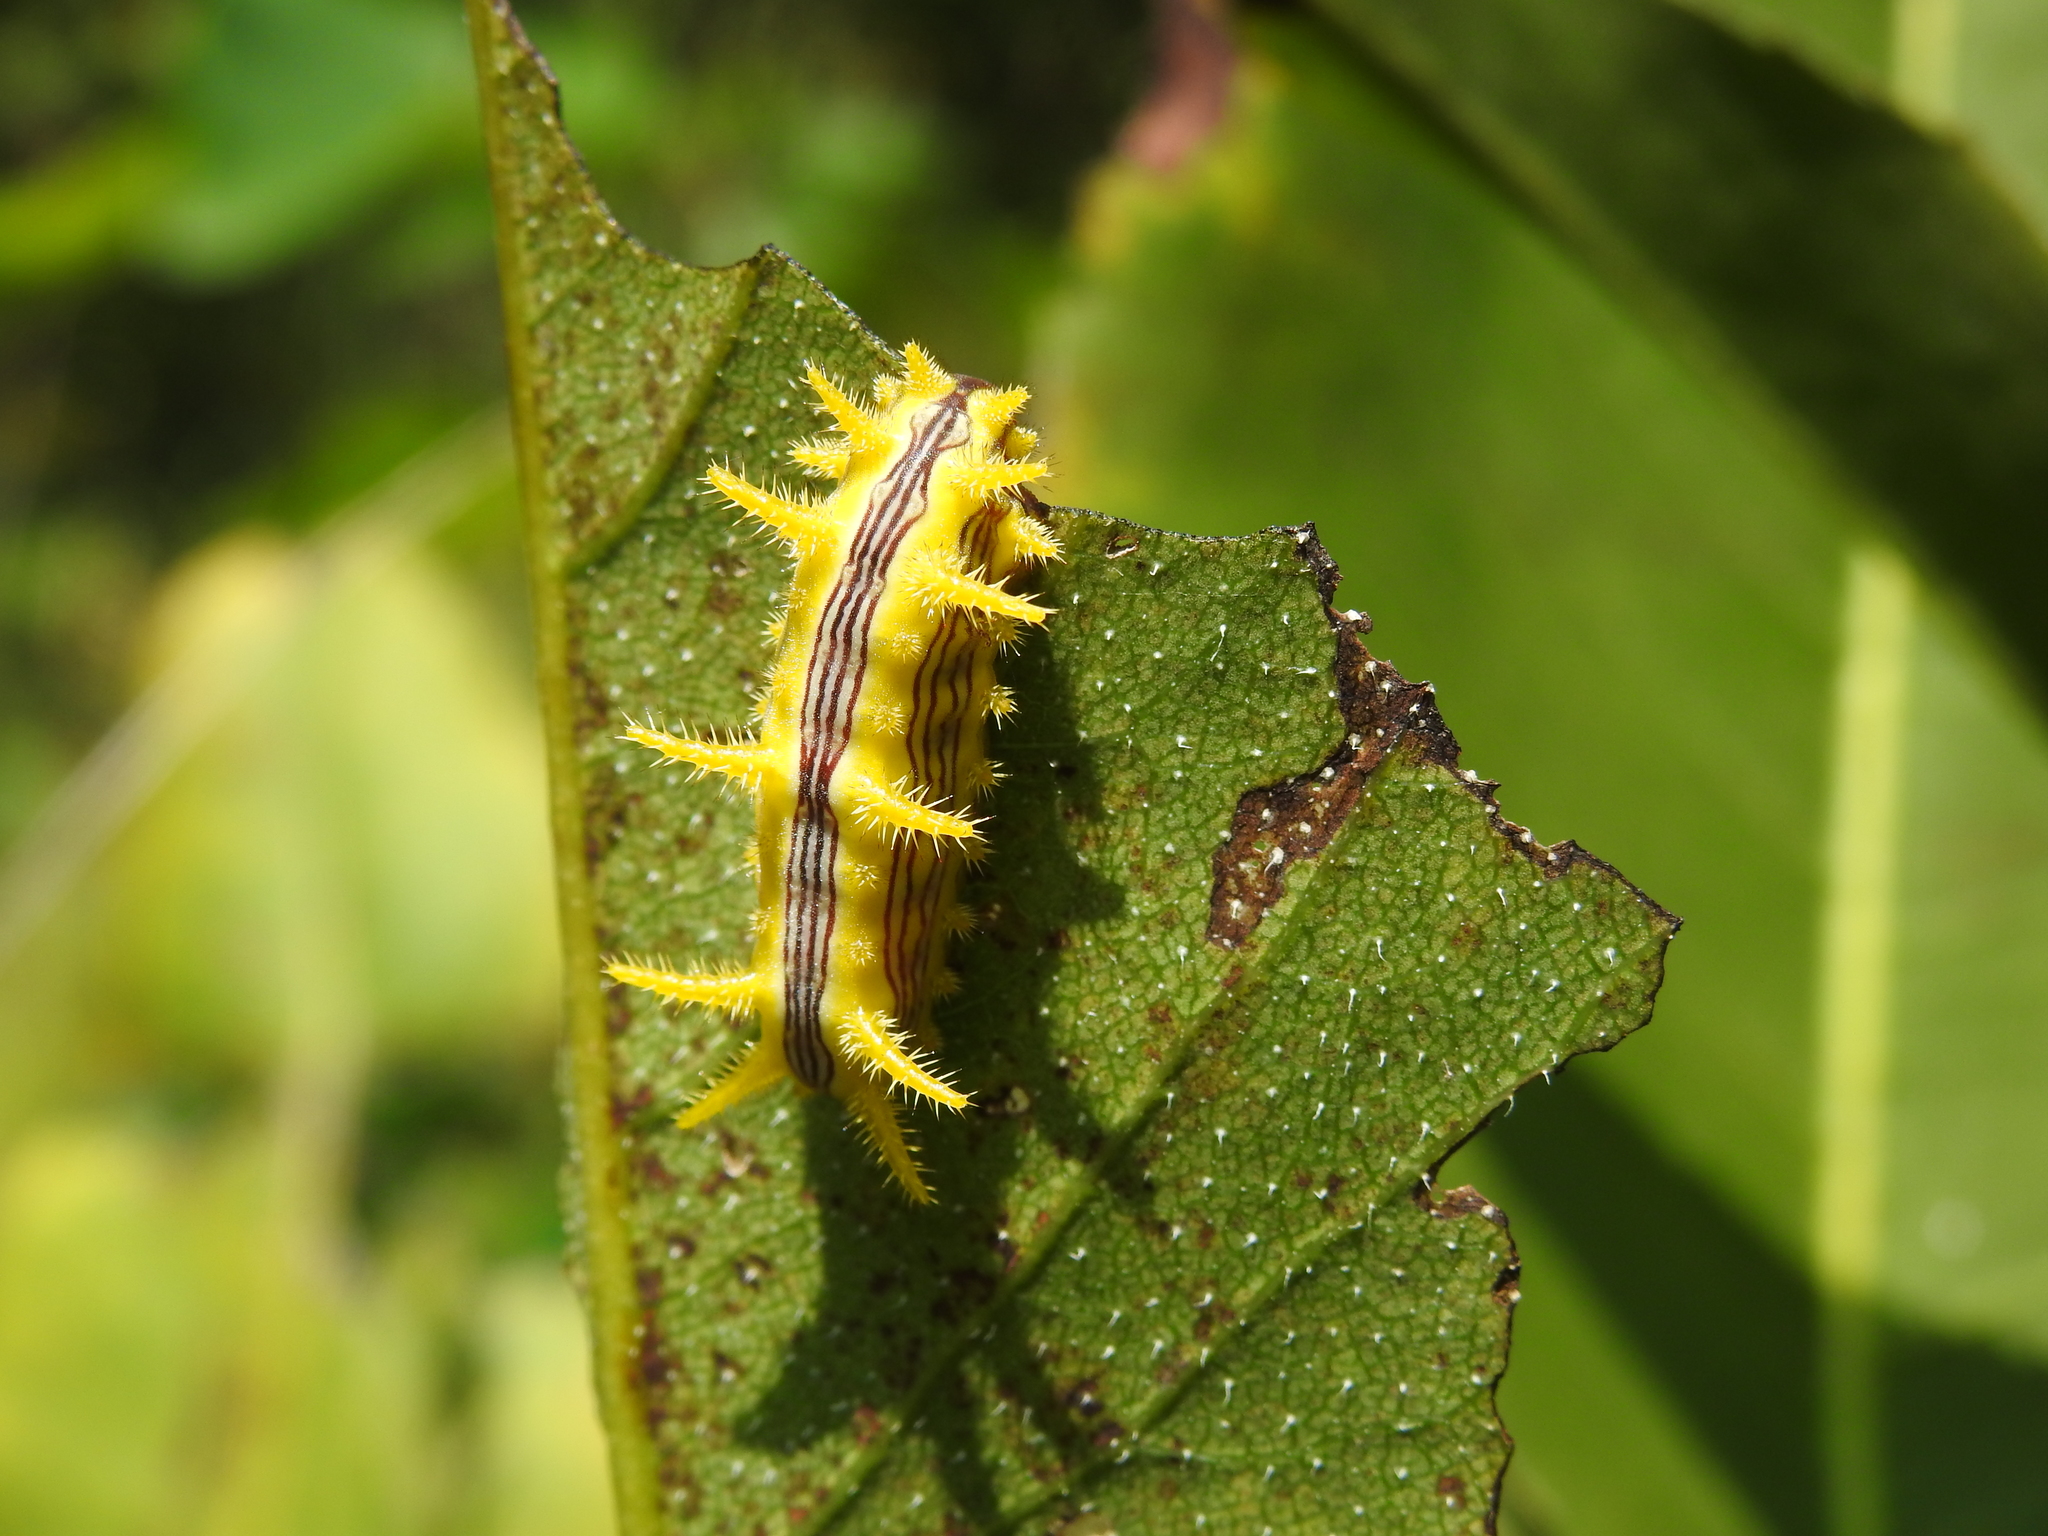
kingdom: Animalia
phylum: Arthropoda
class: Insecta
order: Lepidoptera
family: Limacodidae
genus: Parasa
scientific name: Parasa indetermina
